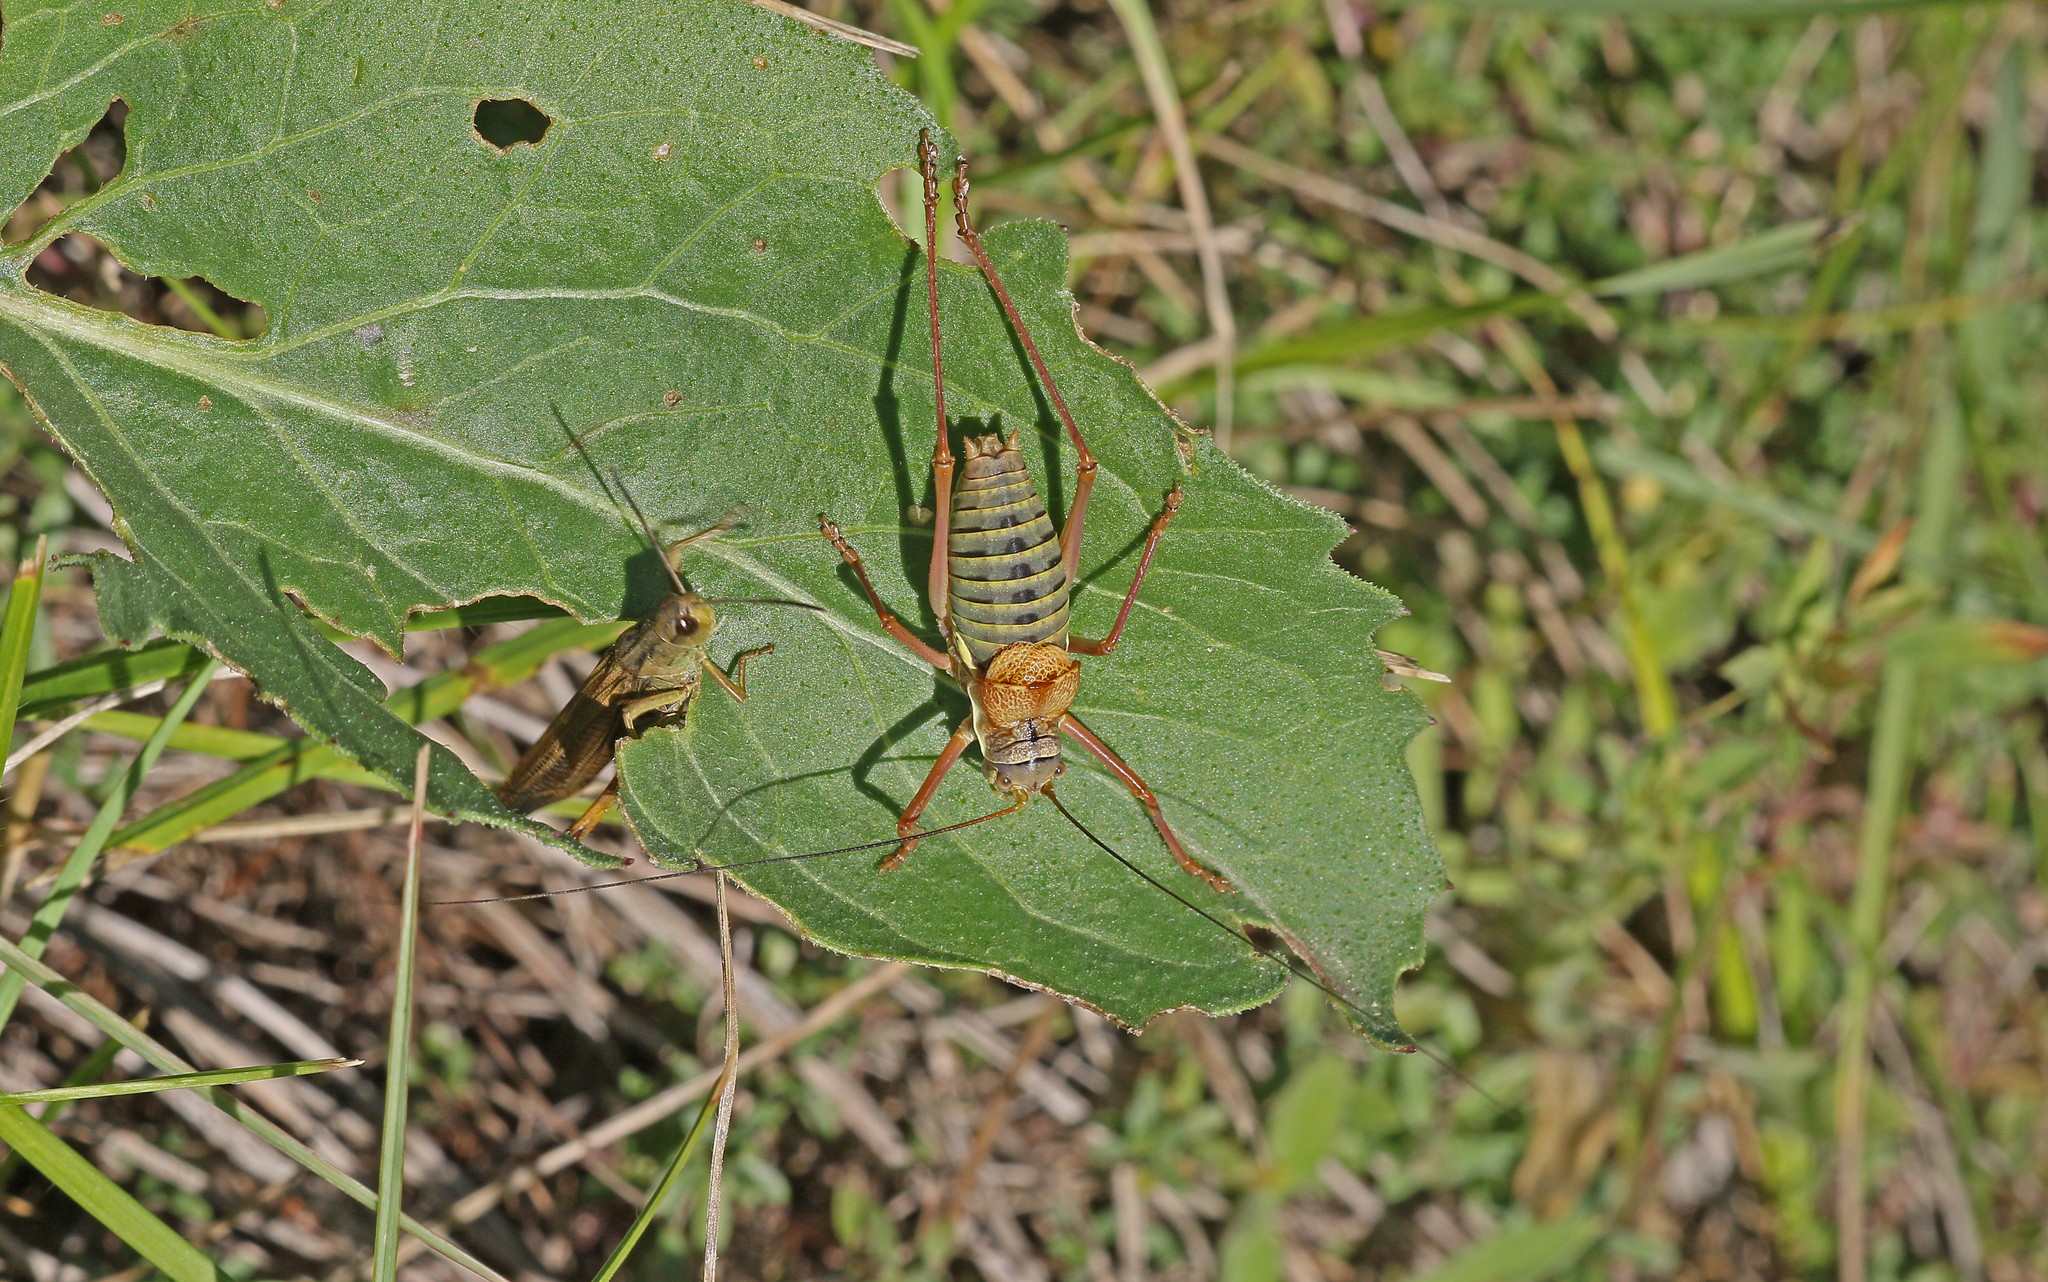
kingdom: Animalia
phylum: Arthropoda
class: Insecta
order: Orthoptera
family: Tettigoniidae
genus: Ephippiger
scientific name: Ephippiger diurnus
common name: Western saddle bush-cricket
